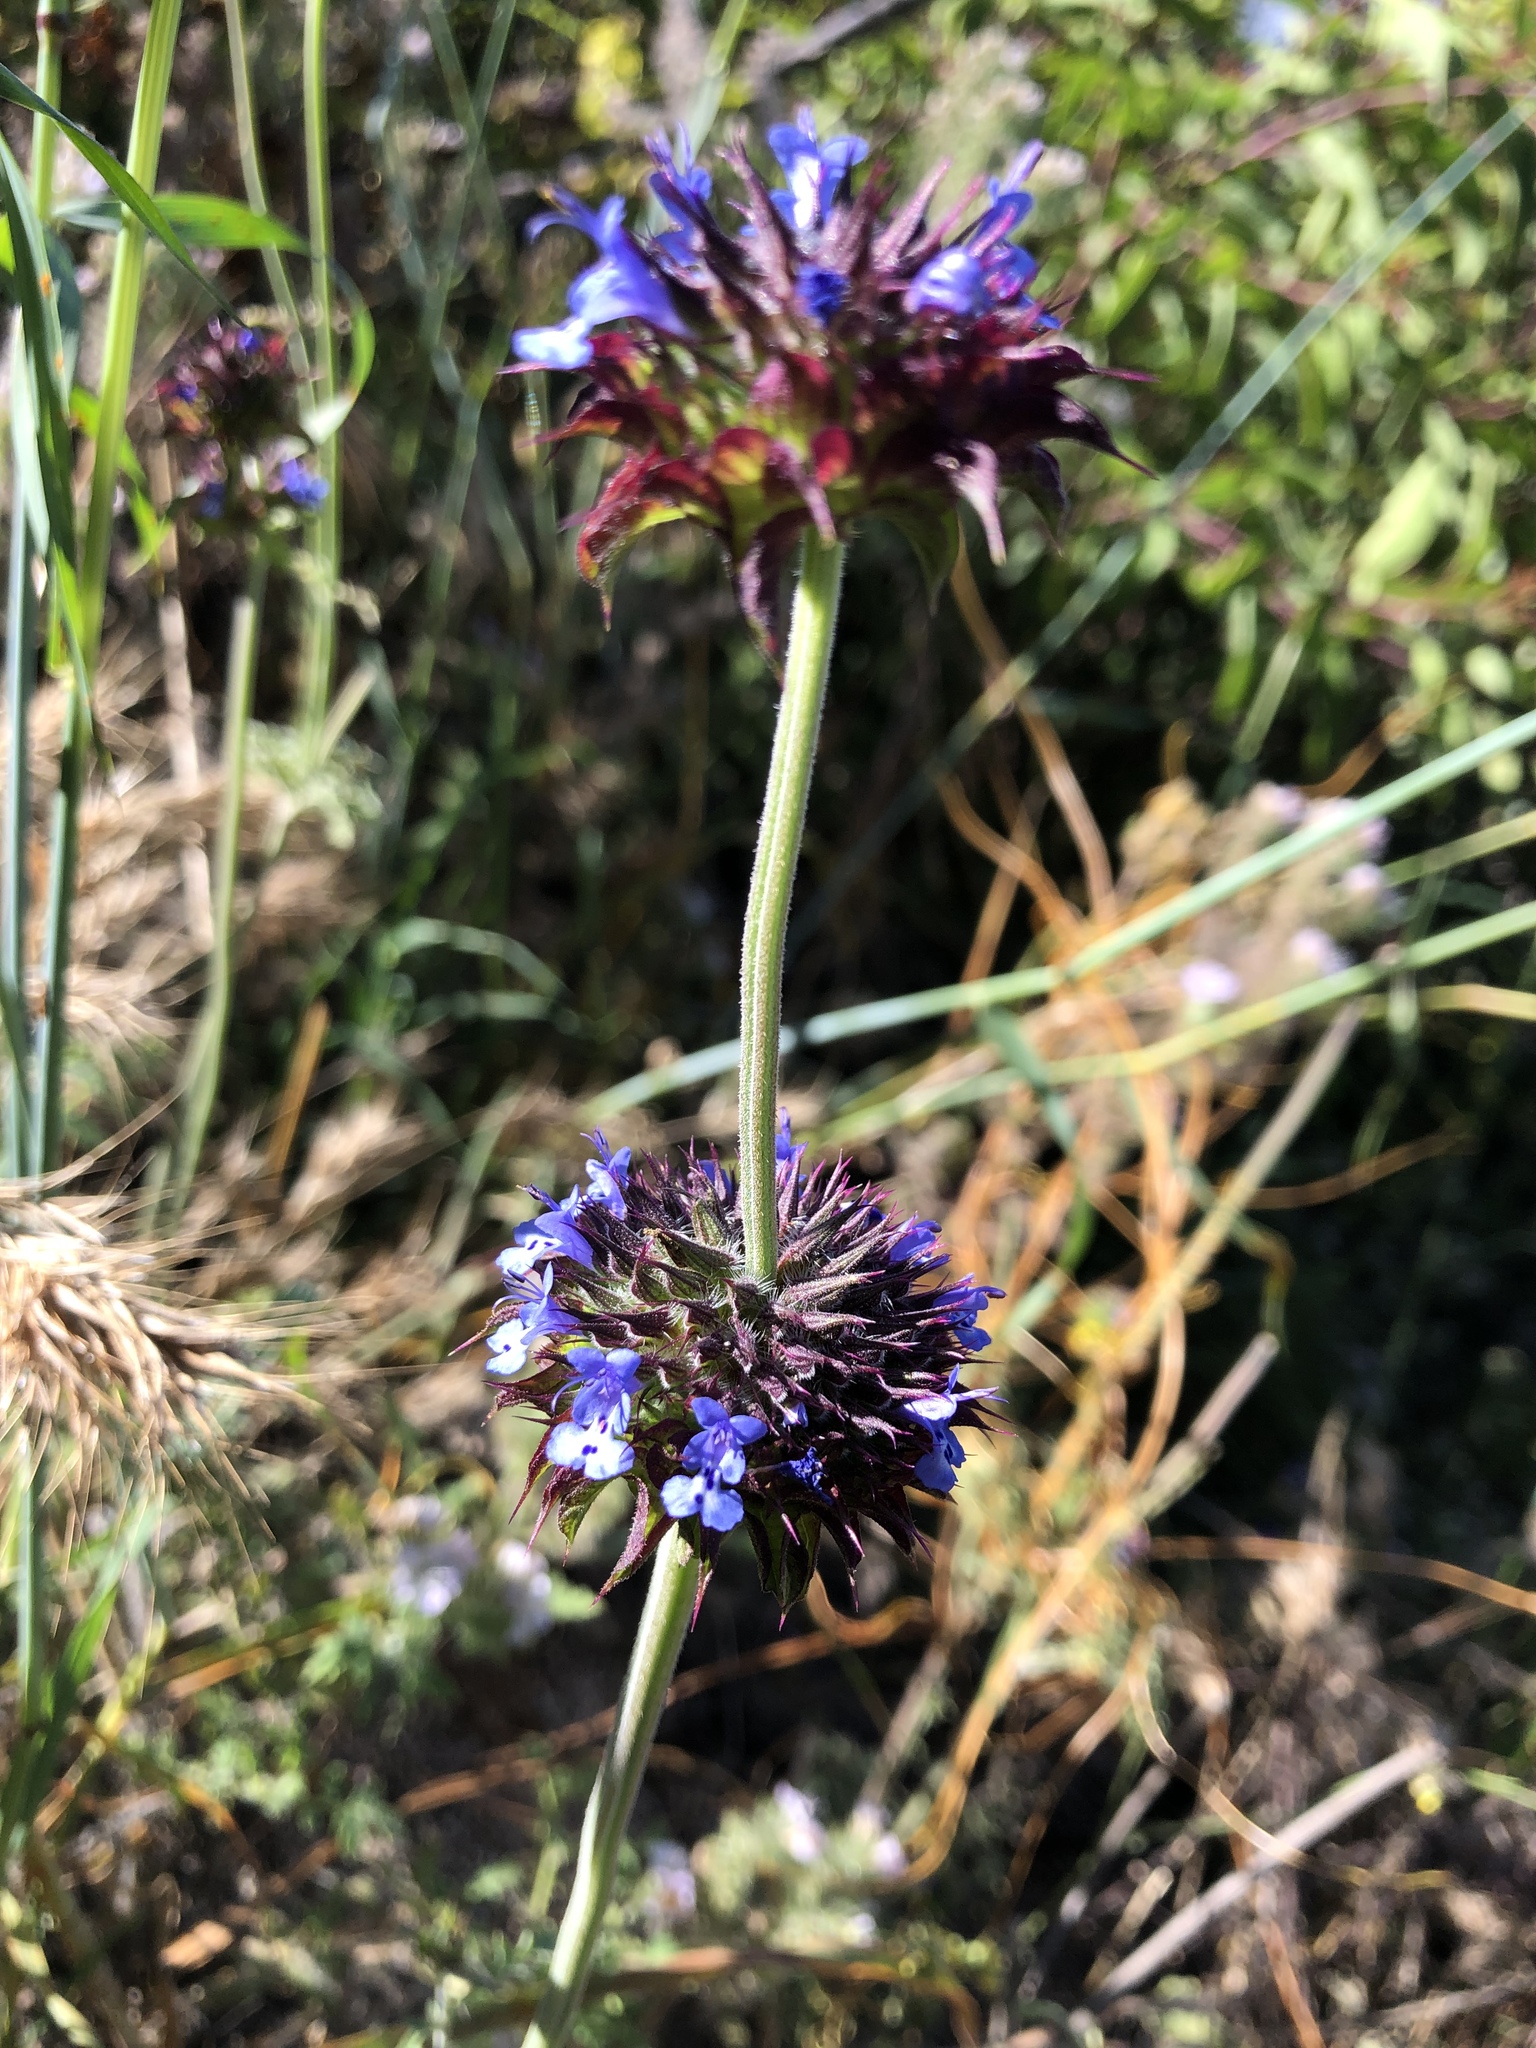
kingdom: Plantae
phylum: Tracheophyta
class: Magnoliopsida
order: Lamiales
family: Lamiaceae
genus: Salvia
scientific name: Salvia columbariae
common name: Chia
